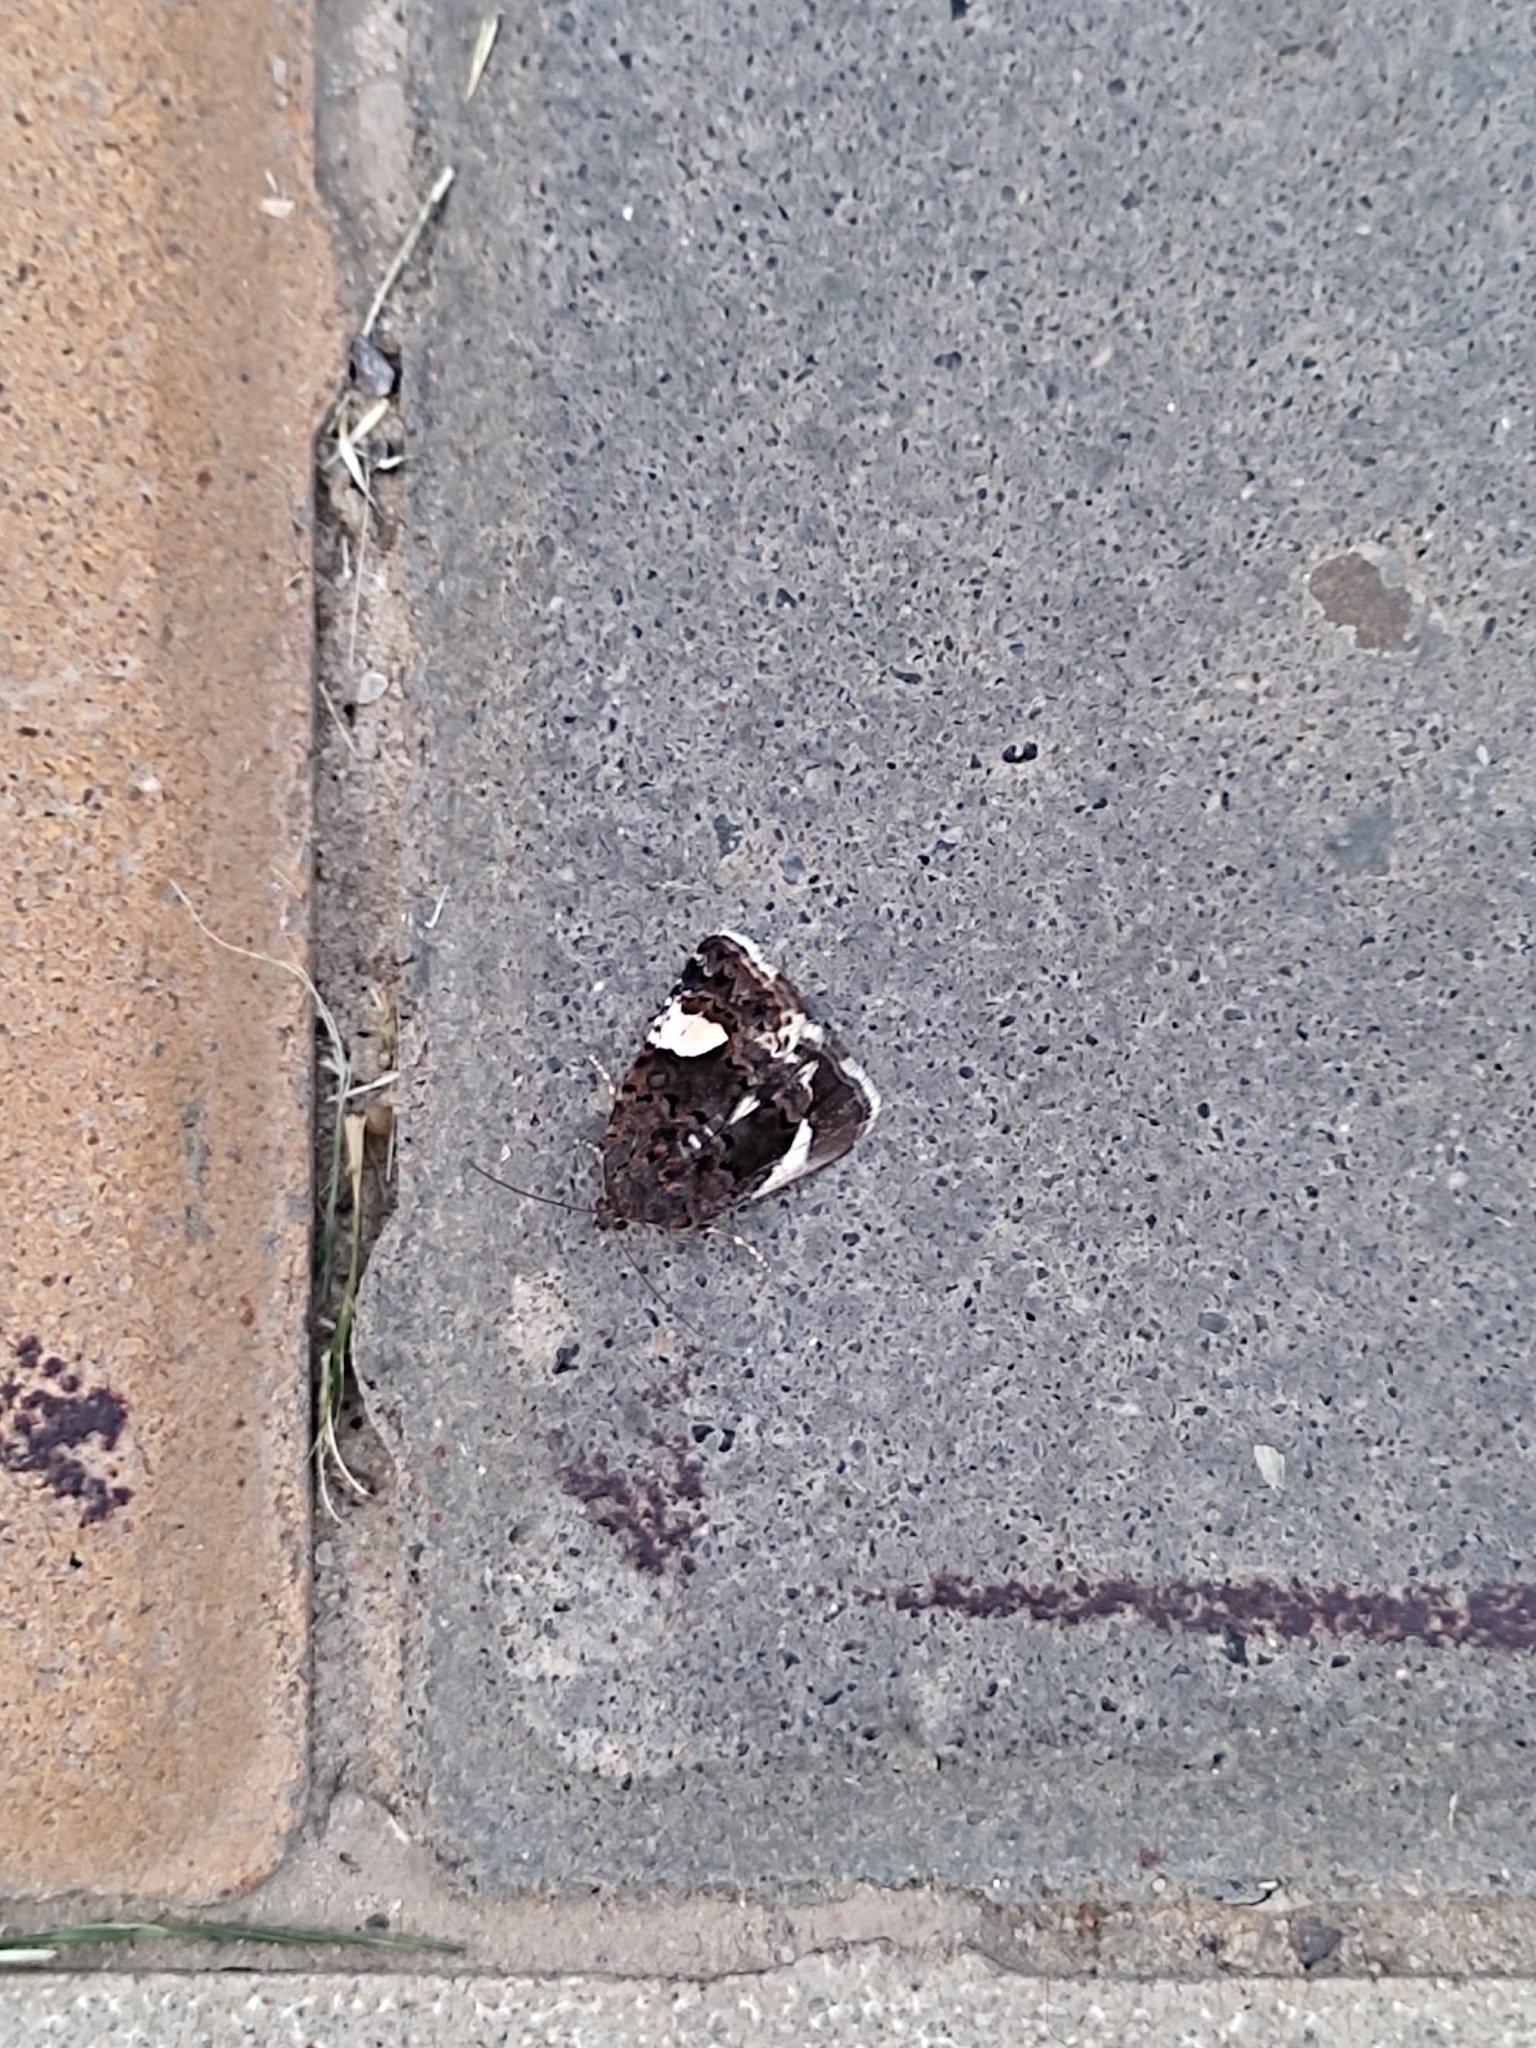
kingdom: Animalia
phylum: Arthropoda
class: Insecta
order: Lepidoptera
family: Erebidae
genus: Tyta
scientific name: Tyta luctuosa
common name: Four-spotted
